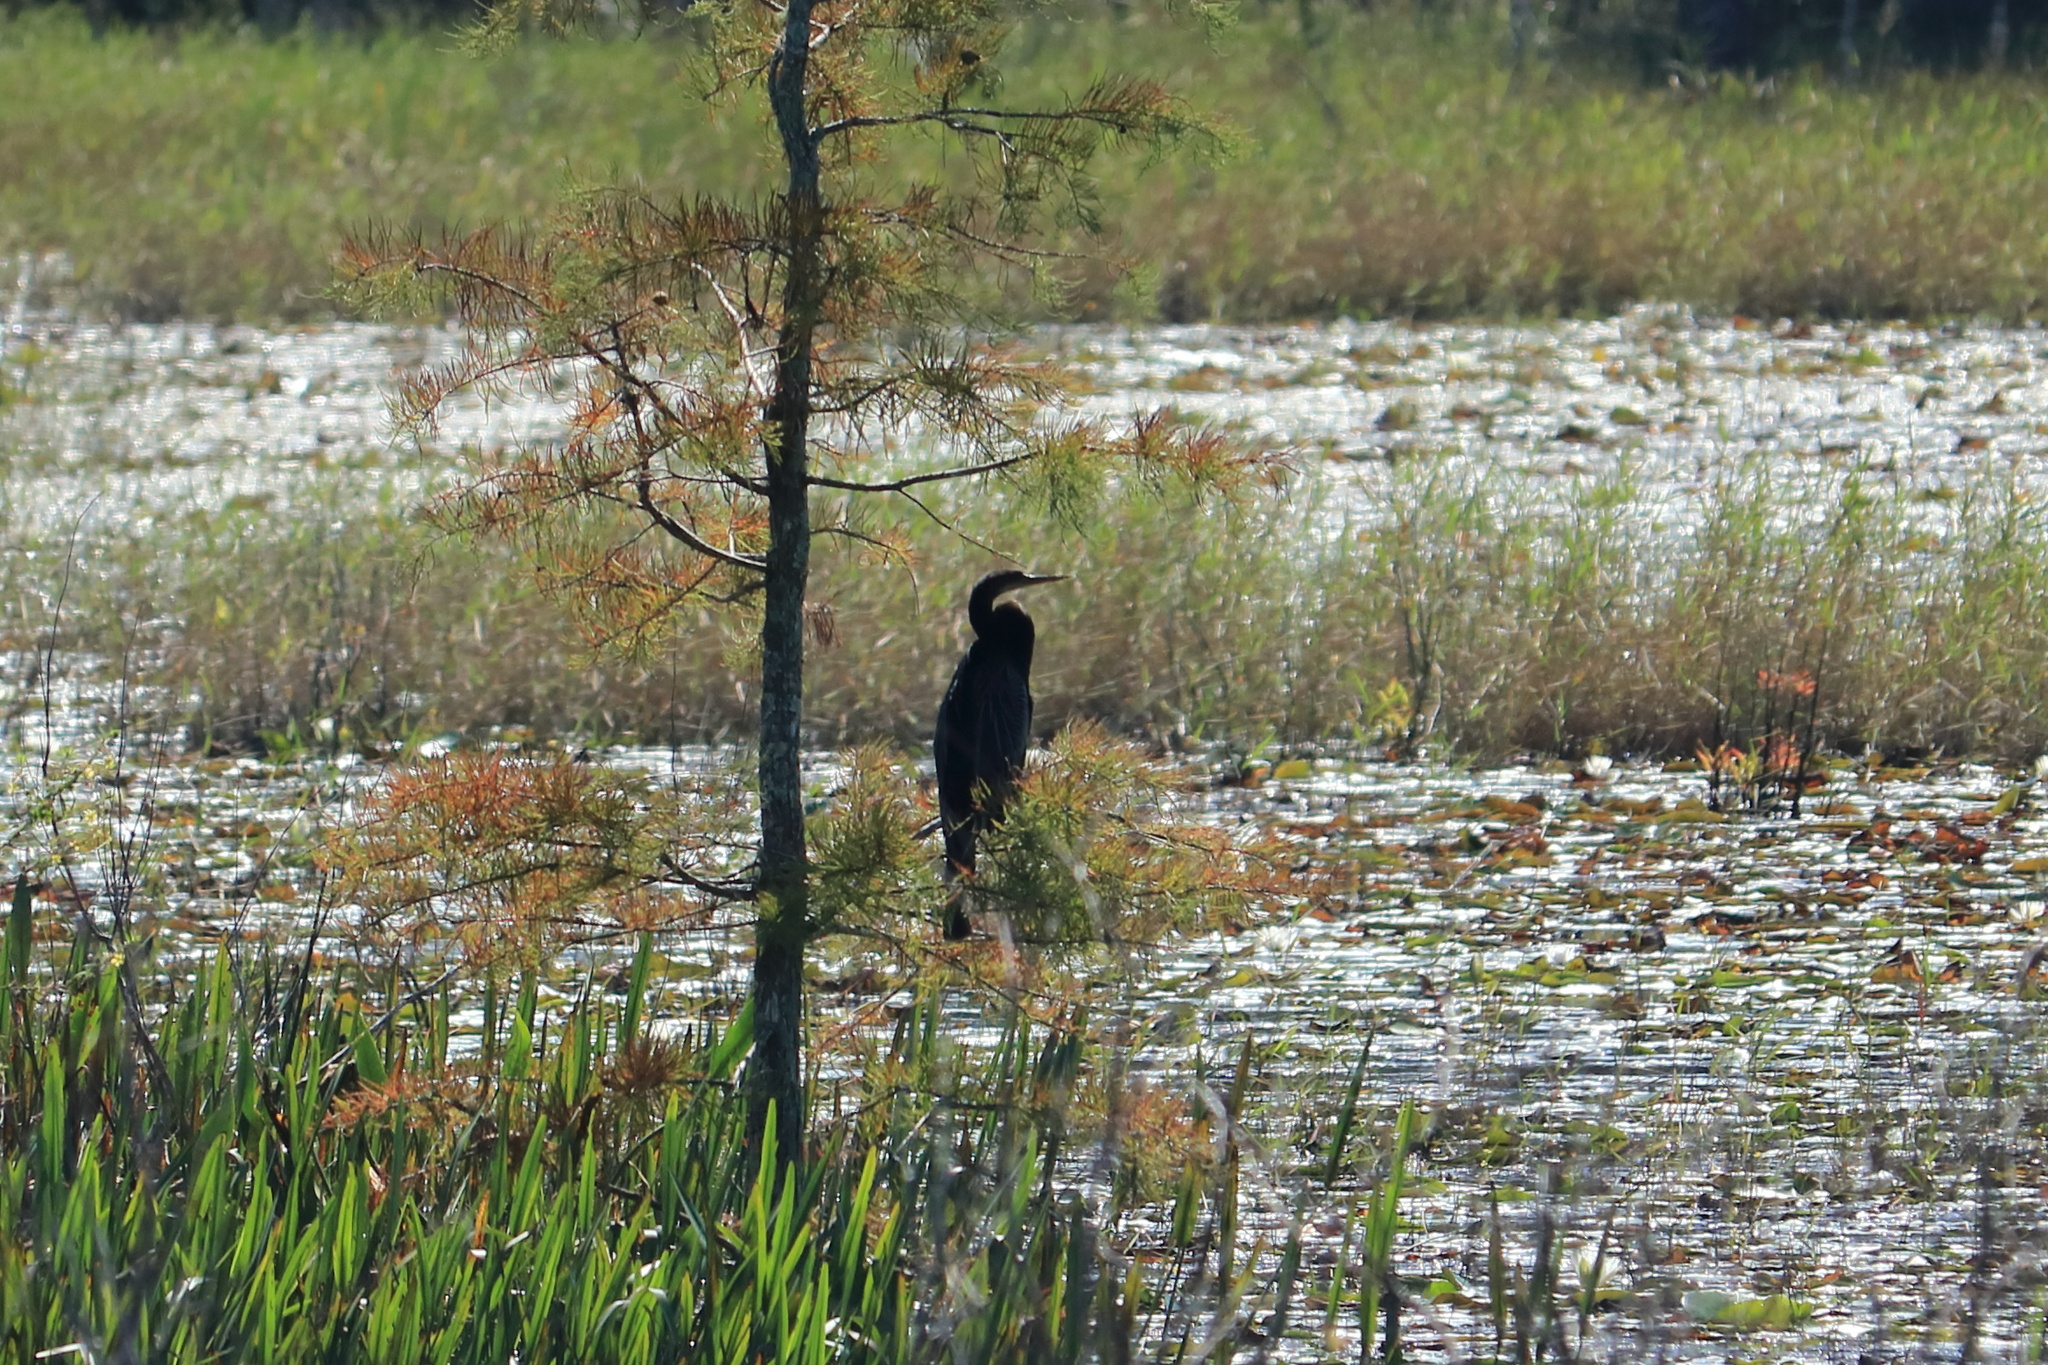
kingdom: Animalia
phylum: Chordata
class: Aves
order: Suliformes
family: Anhingidae
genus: Anhinga
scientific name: Anhinga anhinga
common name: Anhinga
